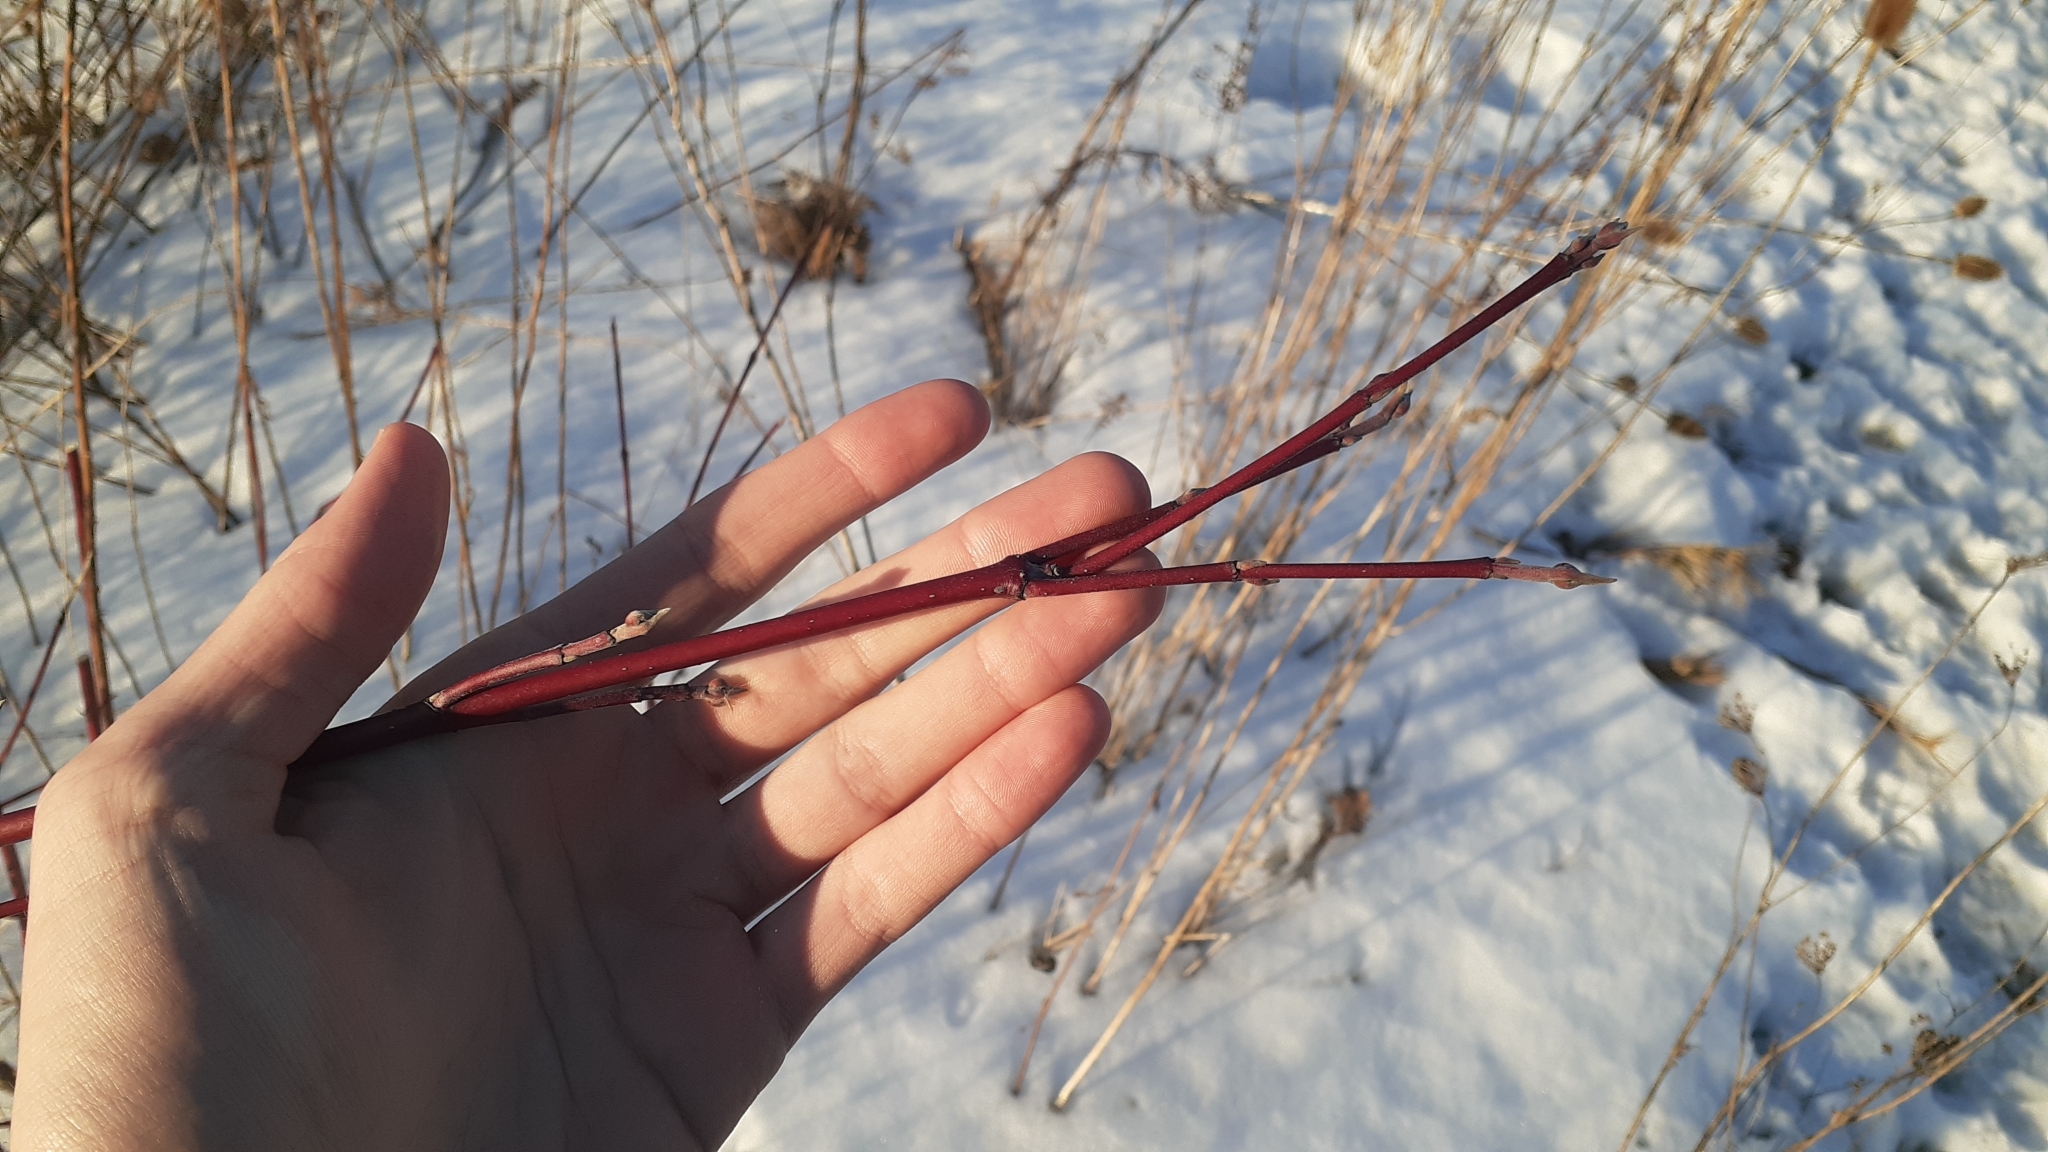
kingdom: Plantae
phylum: Tracheophyta
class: Magnoliopsida
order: Cornales
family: Cornaceae
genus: Cornus
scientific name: Cornus sericea
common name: Red-osier dogwood
